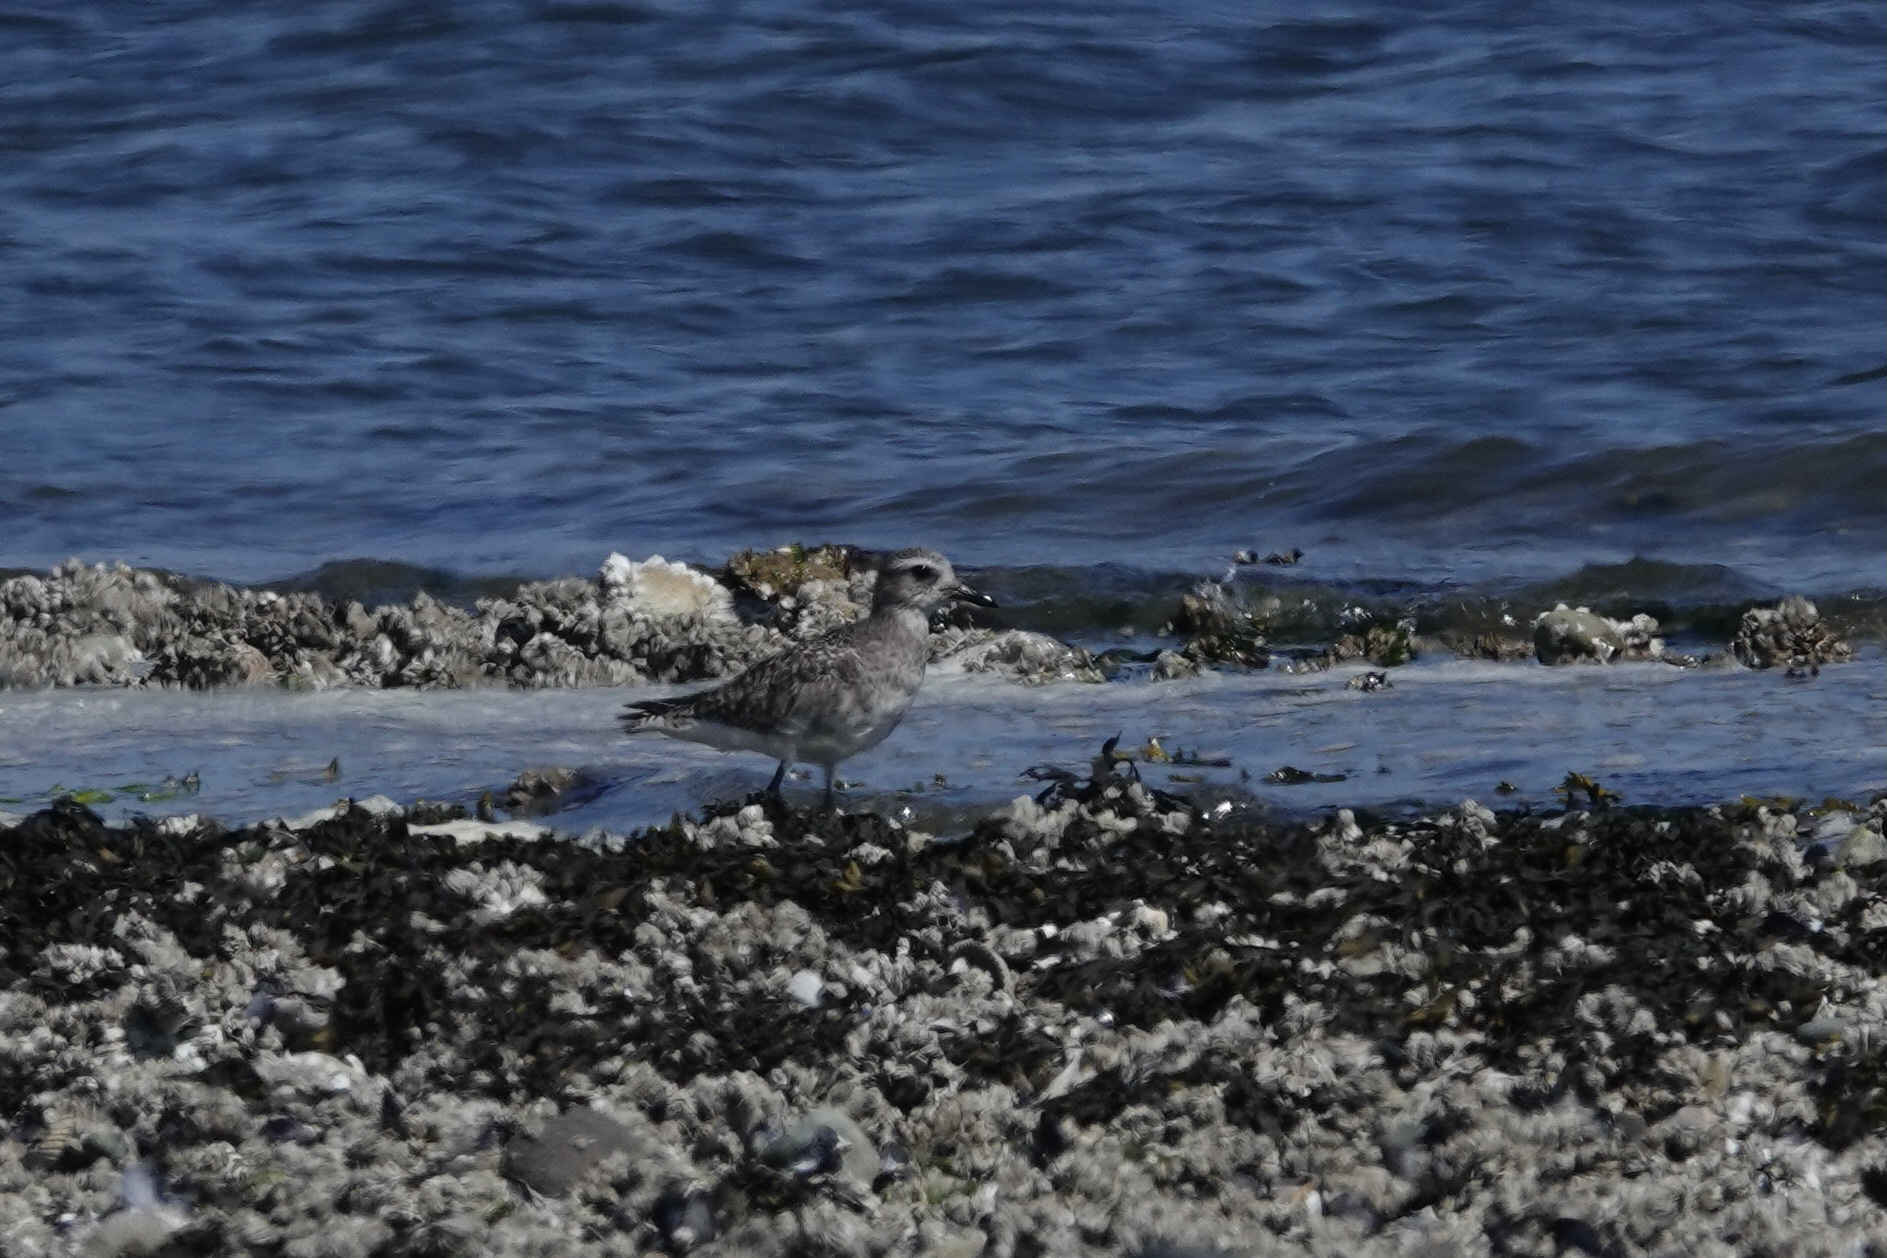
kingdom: Animalia
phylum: Chordata
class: Aves
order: Charadriiformes
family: Charadriidae
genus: Pluvialis
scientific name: Pluvialis squatarola
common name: Grey plover
